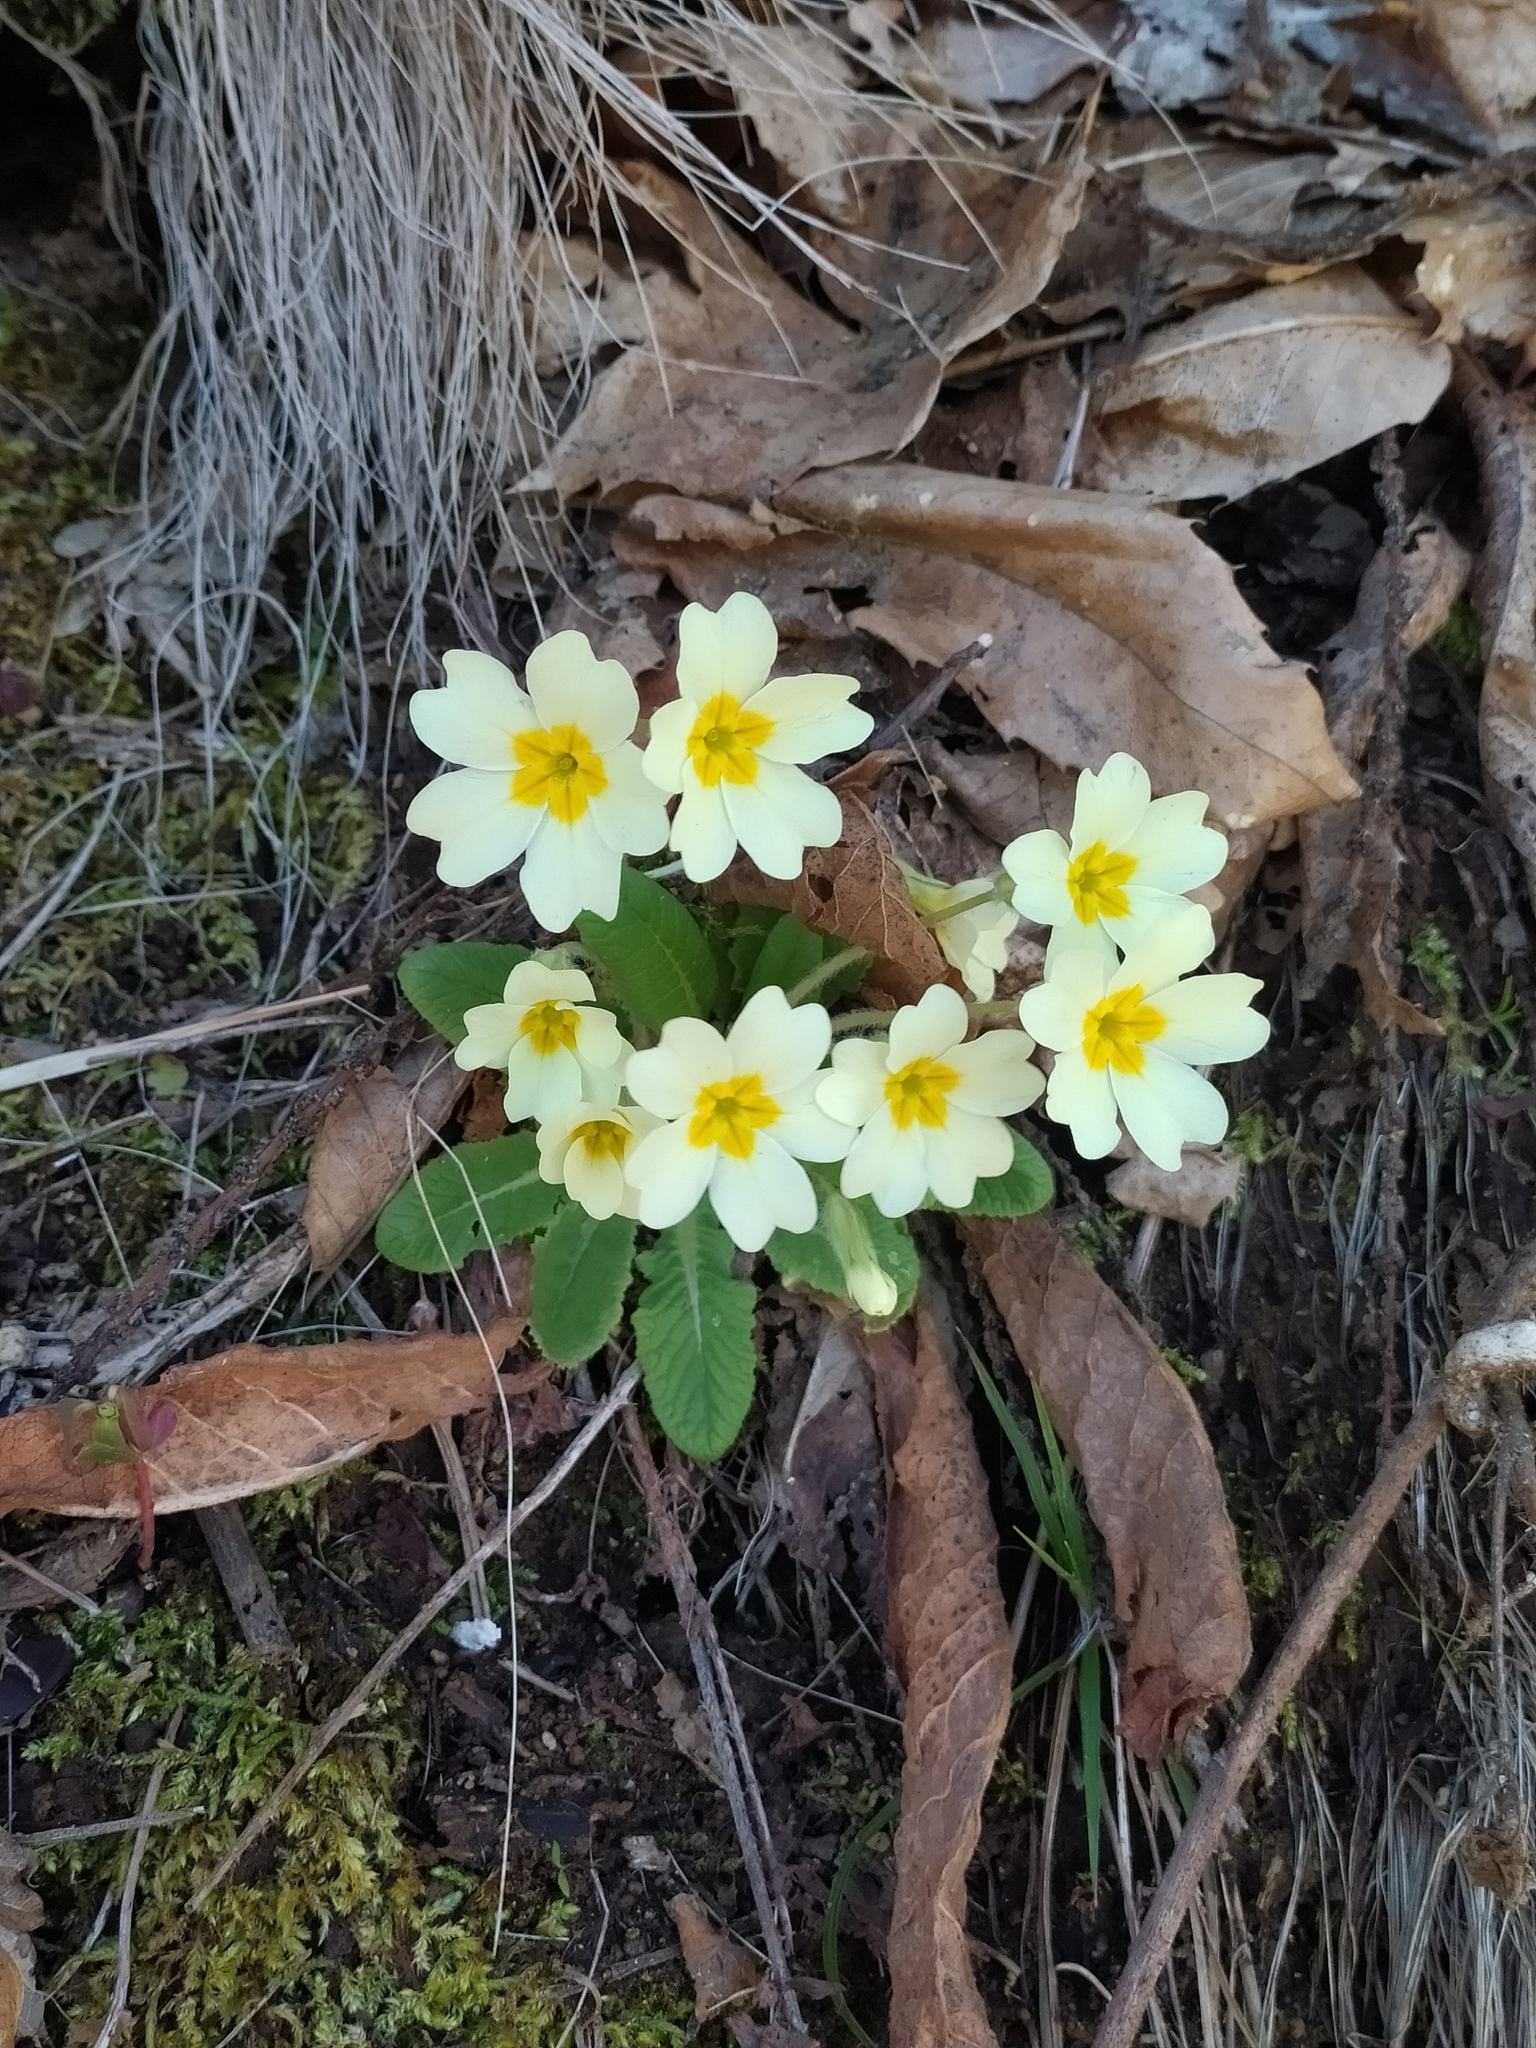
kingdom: Plantae
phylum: Tracheophyta
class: Magnoliopsida
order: Ericales
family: Primulaceae
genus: Primula
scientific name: Primula vulgaris
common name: Primrose
